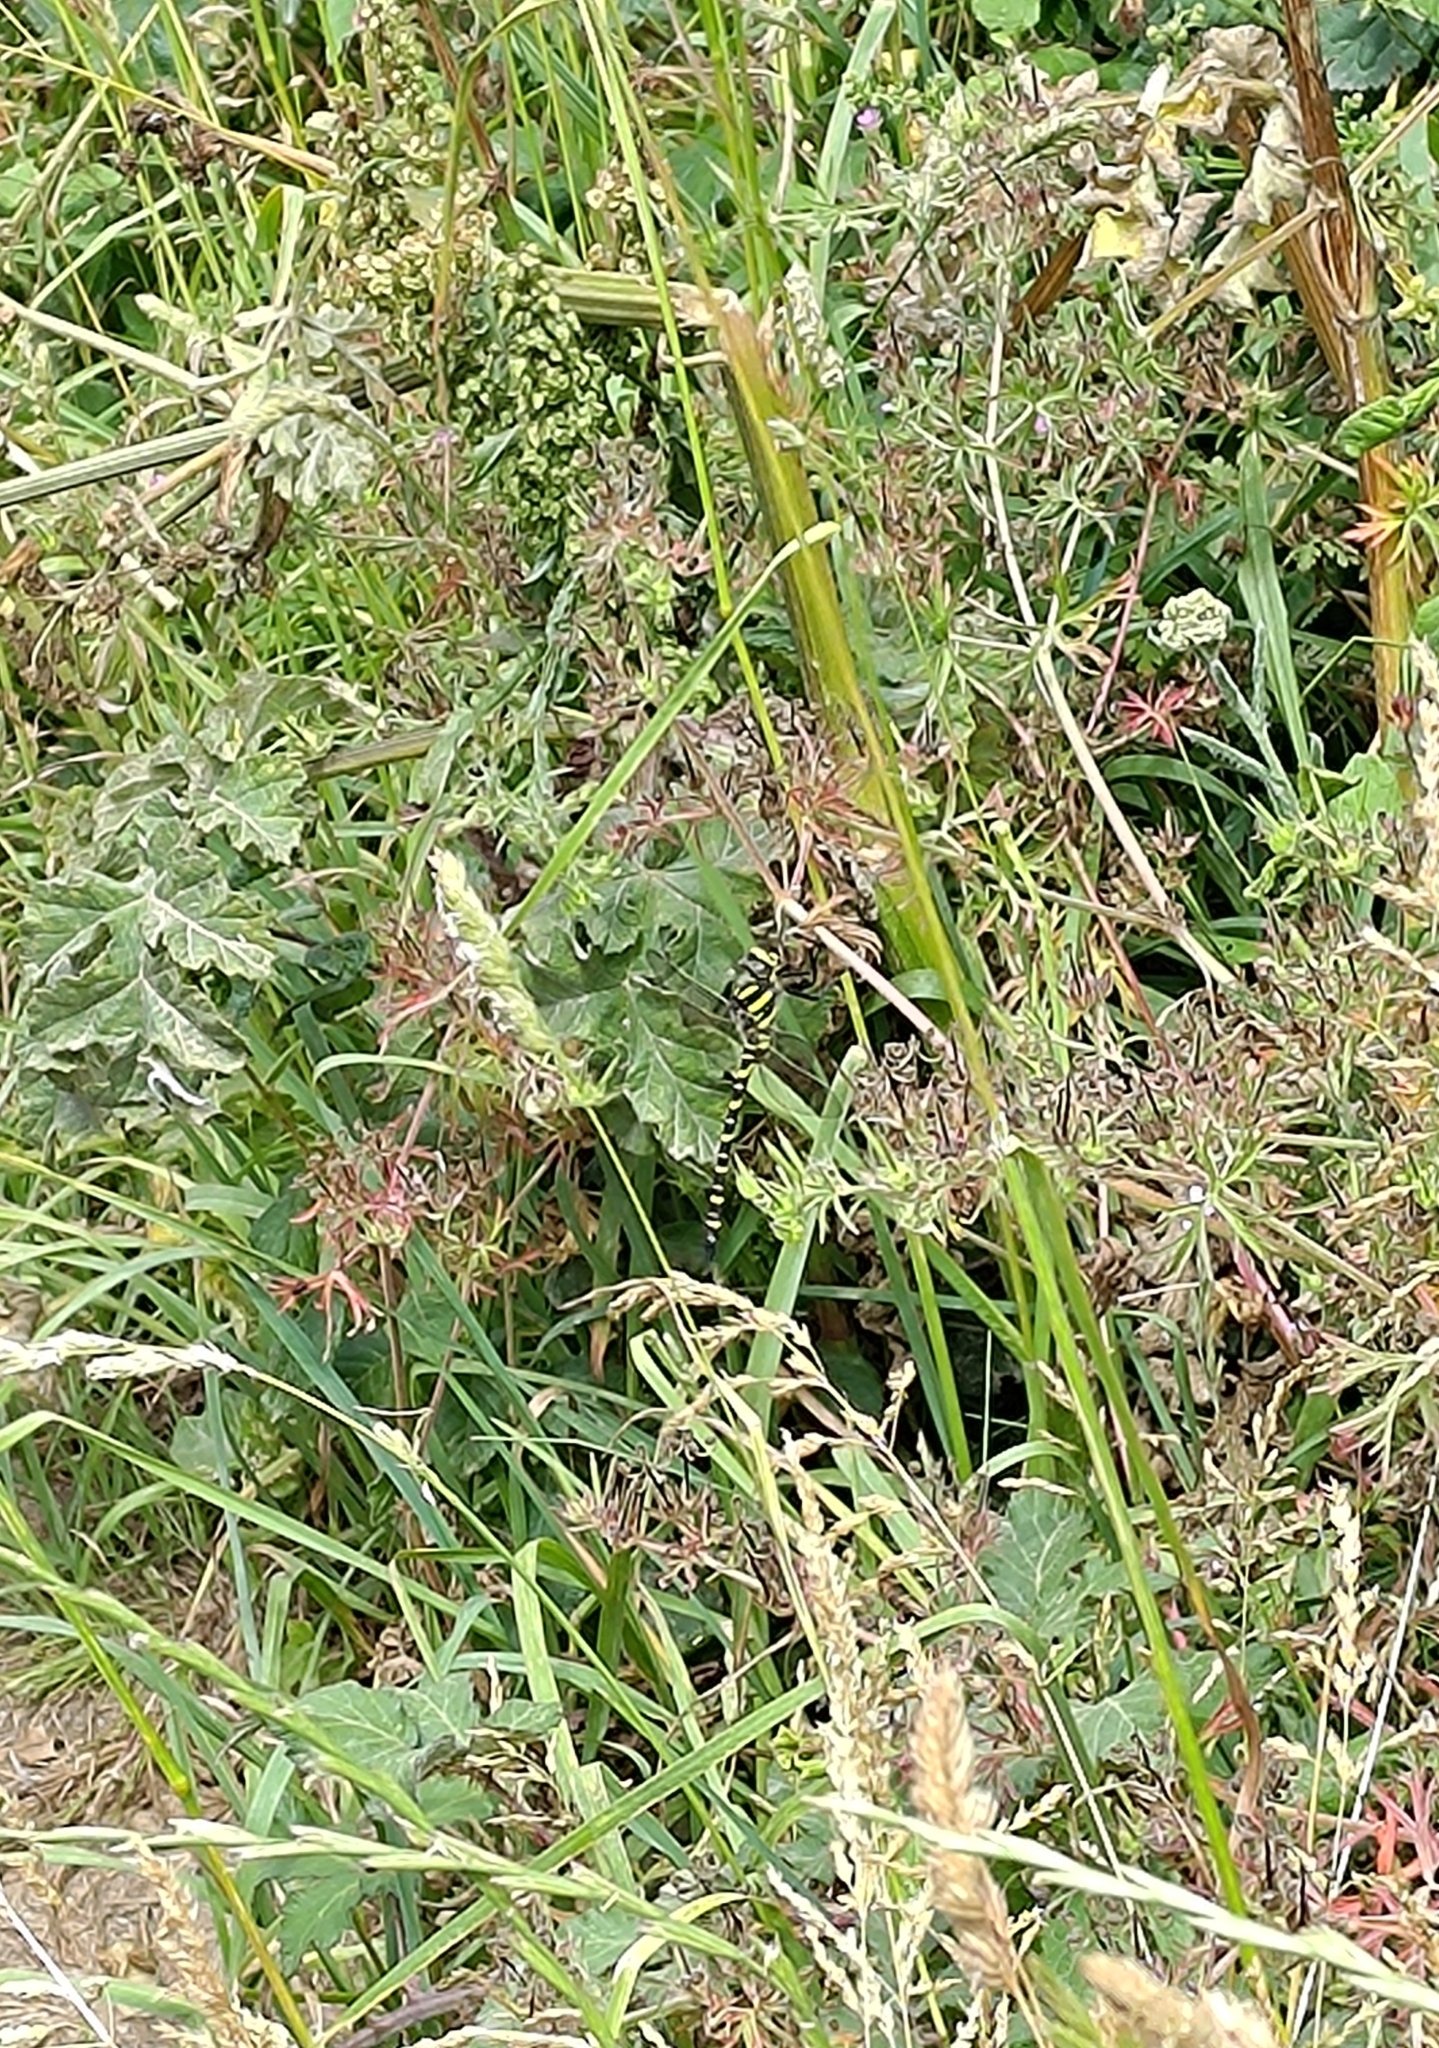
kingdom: Animalia
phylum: Arthropoda
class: Insecta
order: Odonata
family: Cordulegastridae
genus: Cordulegaster
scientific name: Cordulegaster boltonii
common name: Golden-ringed dragonfly
